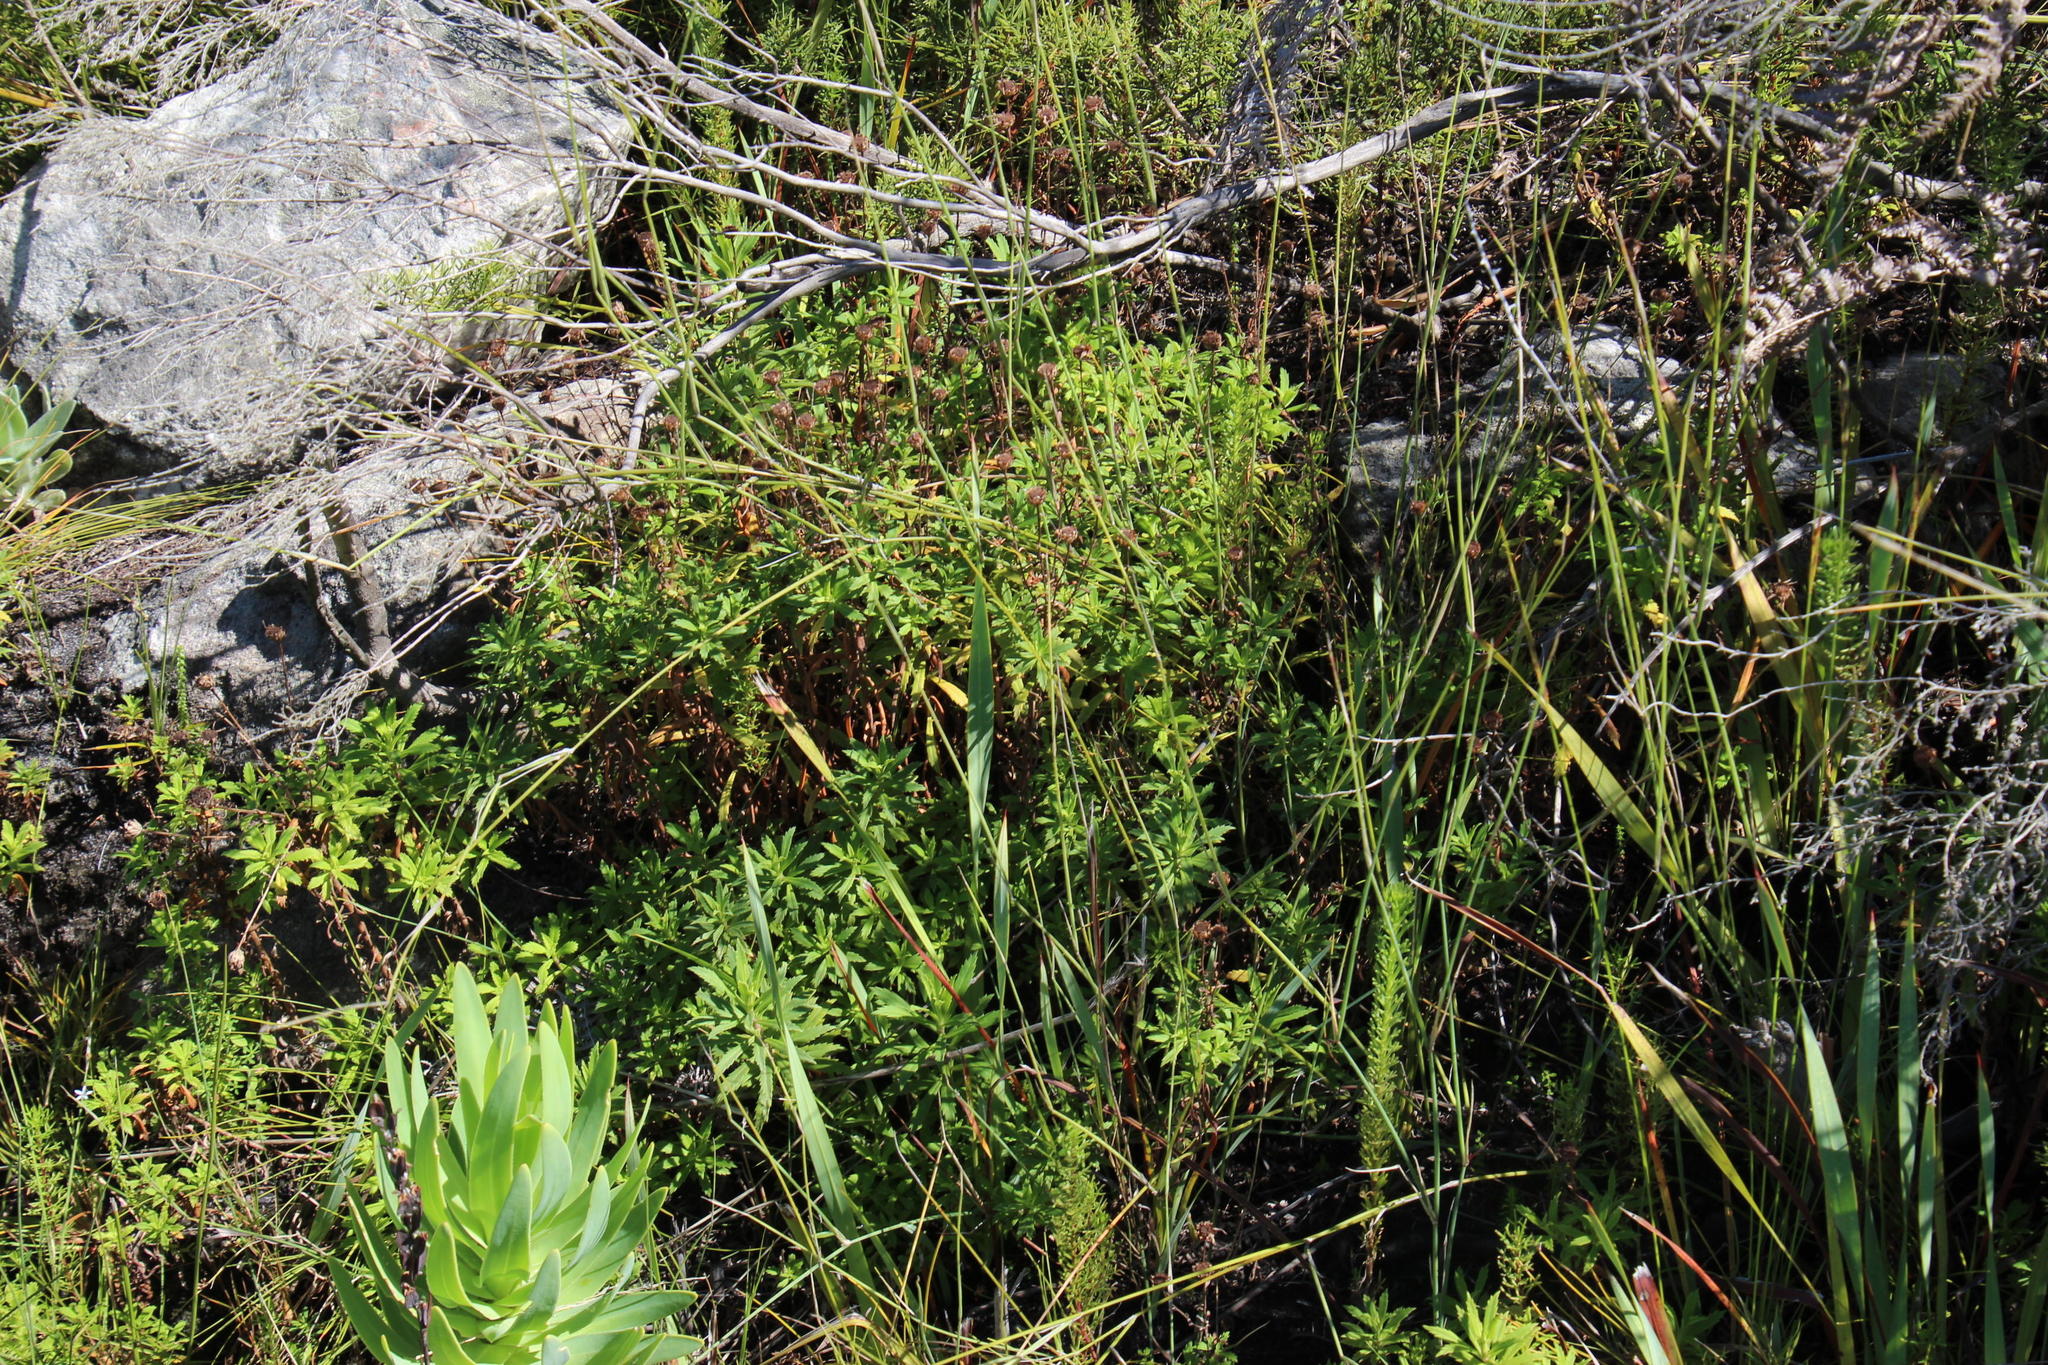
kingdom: Plantae
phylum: Tracheophyta
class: Magnoliopsida
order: Asterales
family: Asteraceae
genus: Osmitopsis
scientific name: Osmitopsis osmitoides
